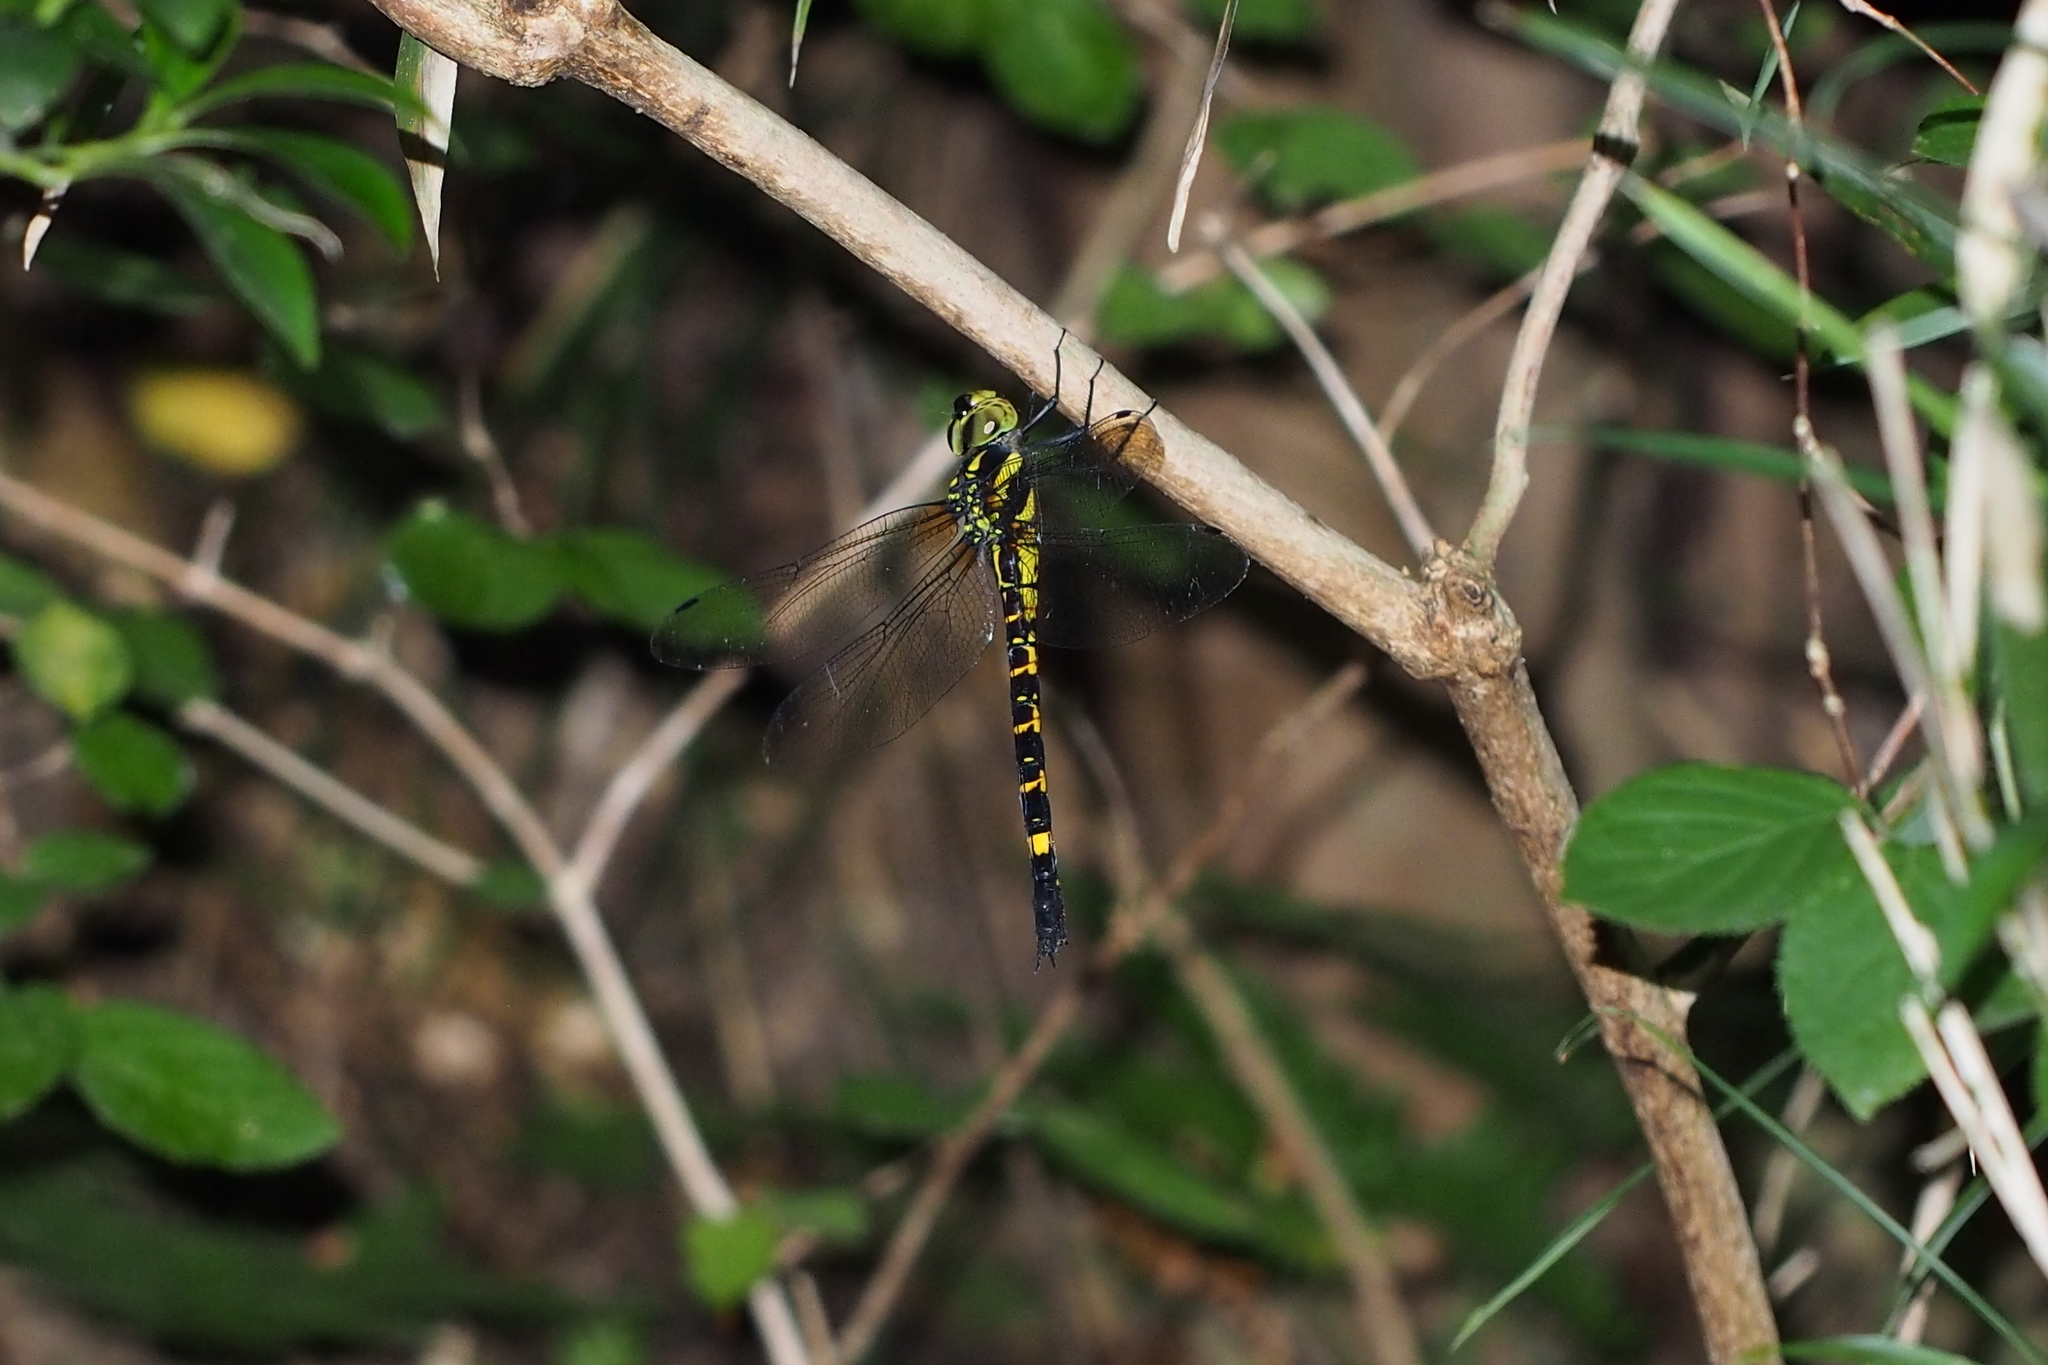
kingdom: Animalia
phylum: Arthropoda
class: Insecta
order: Odonata
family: Aeshnidae
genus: Indaeschna
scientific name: Indaeschna
